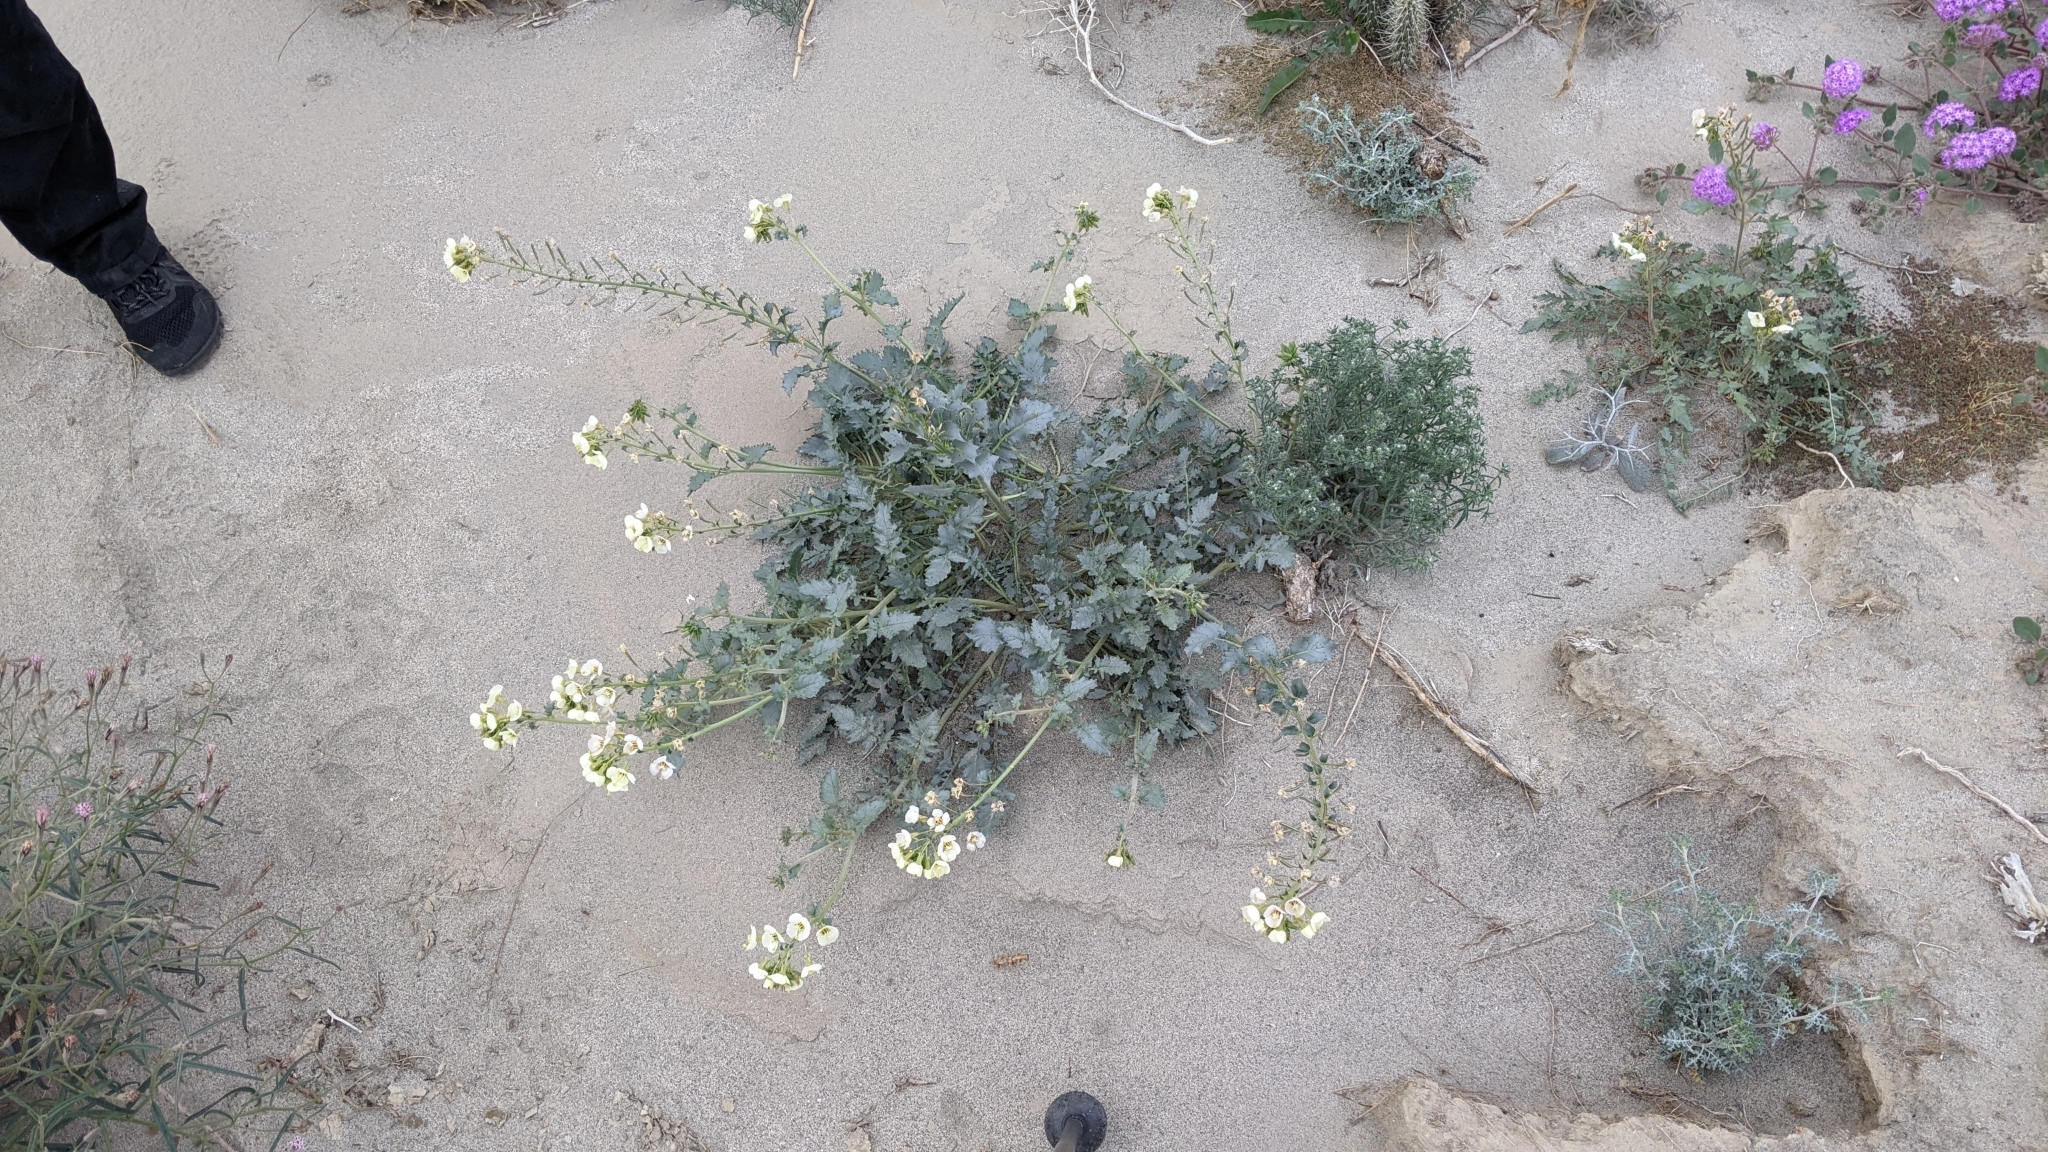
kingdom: Plantae
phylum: Tracheophyta
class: Magnoliopsida
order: Myrtales
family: Onagraceae
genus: Chylismia
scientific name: Chylismia claviformis
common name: Browneyes
